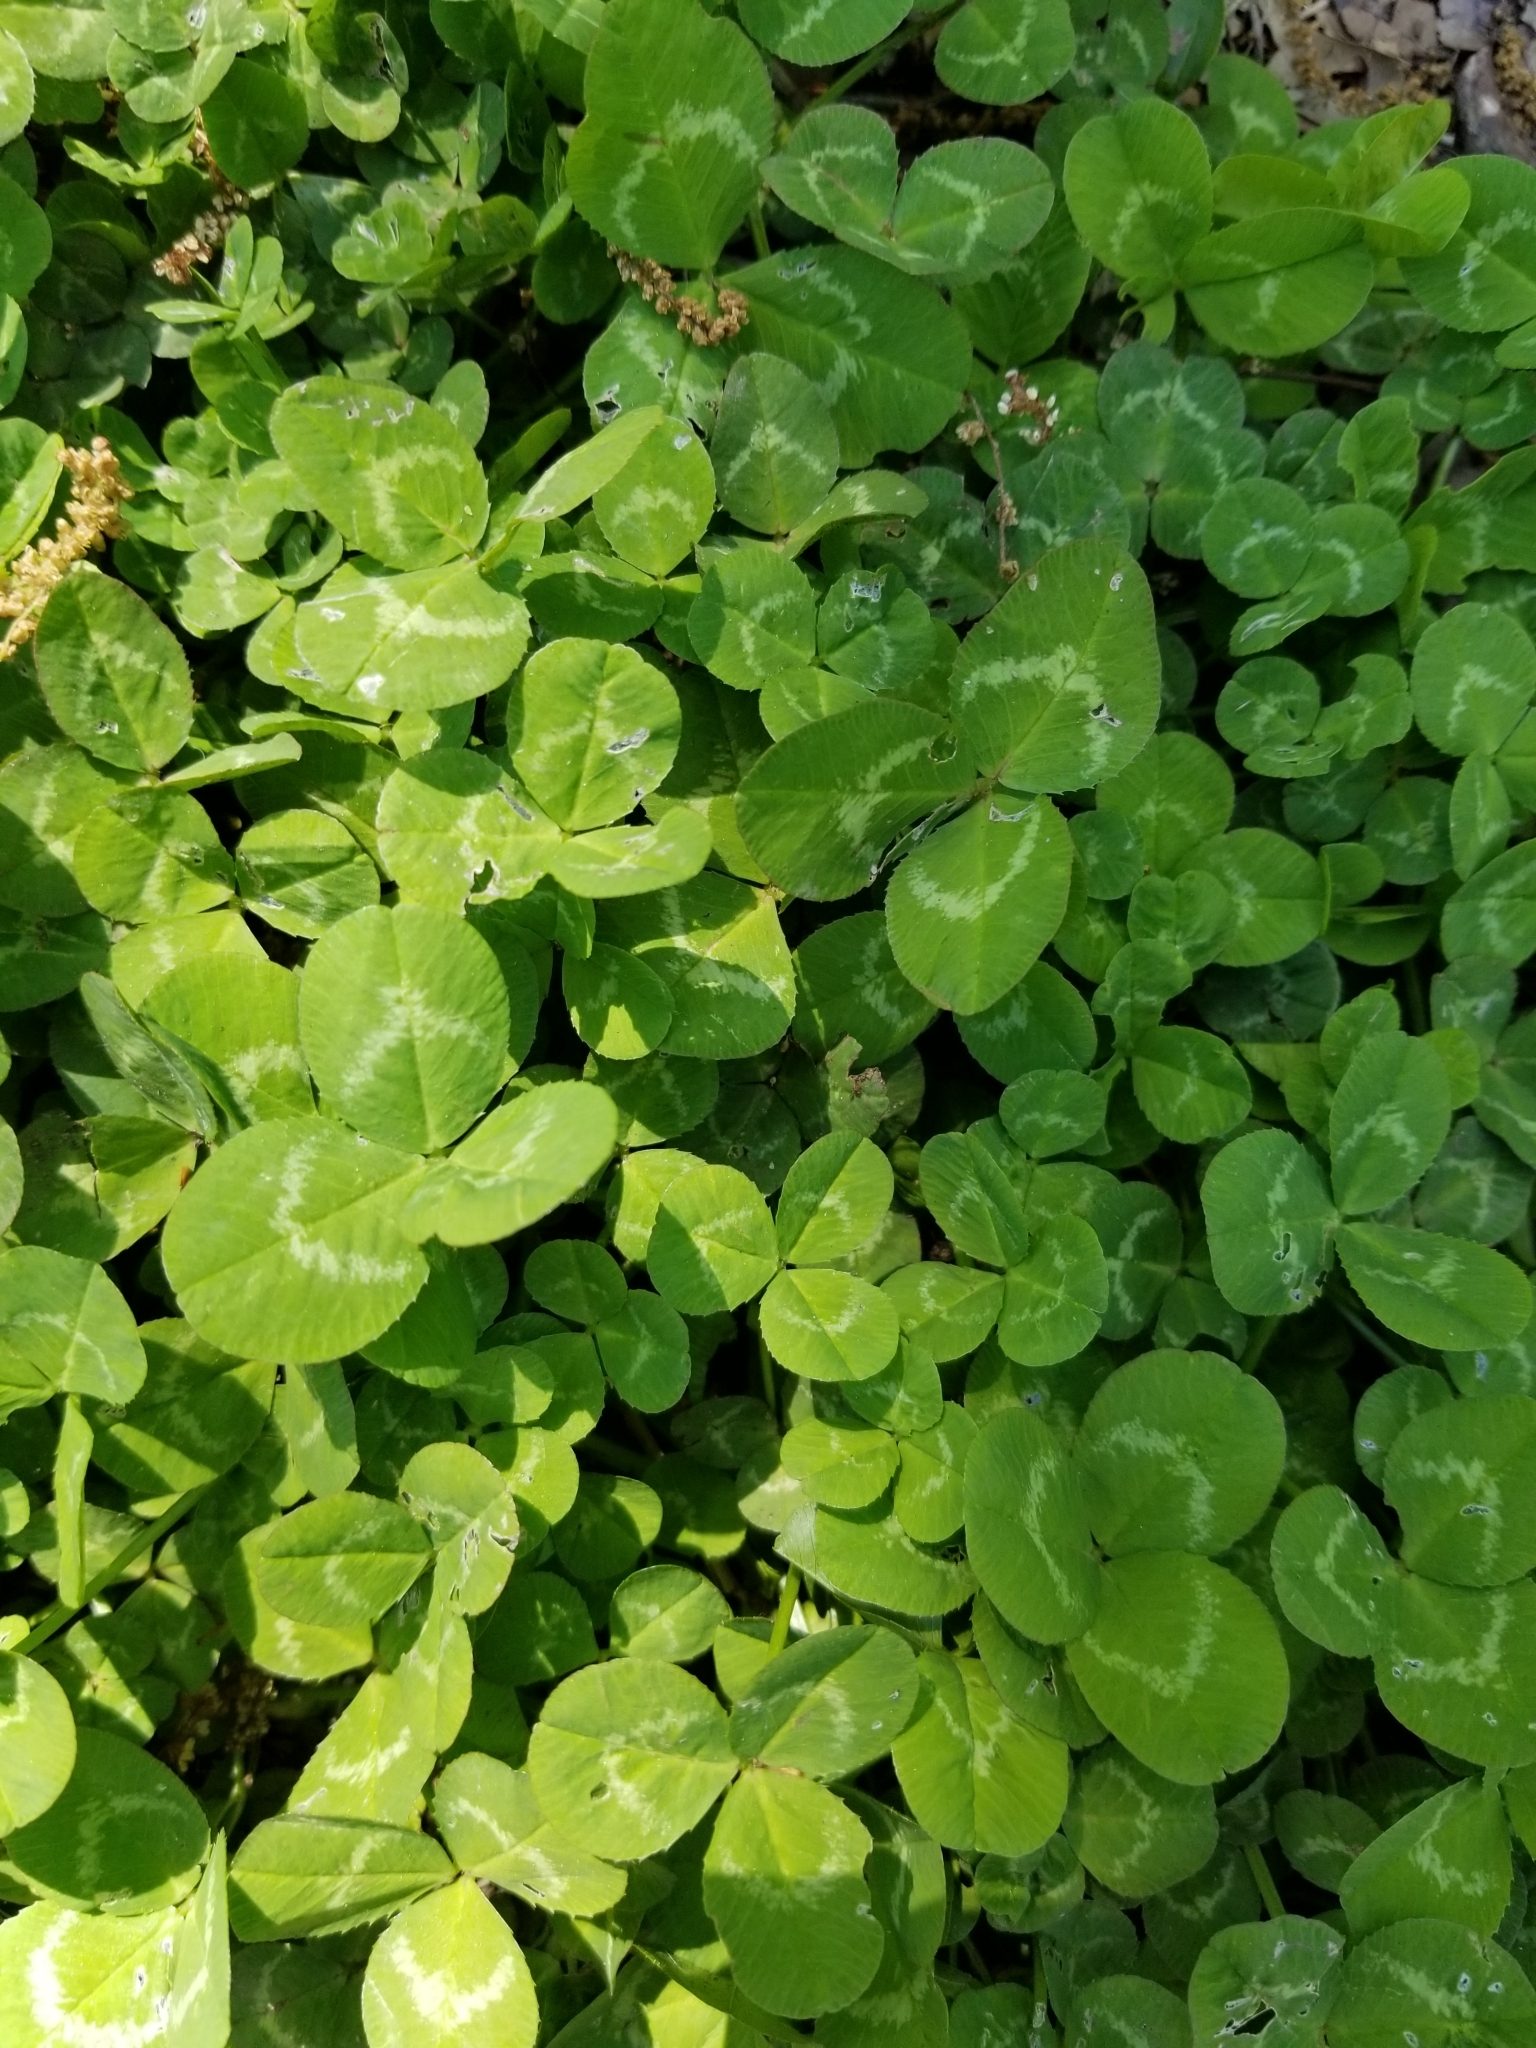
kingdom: Plantae
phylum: Tracheophyta
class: Magnoliopsida
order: Fabales
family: Fabaceae
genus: Trifolium
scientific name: Trifolium repens
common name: White clover
